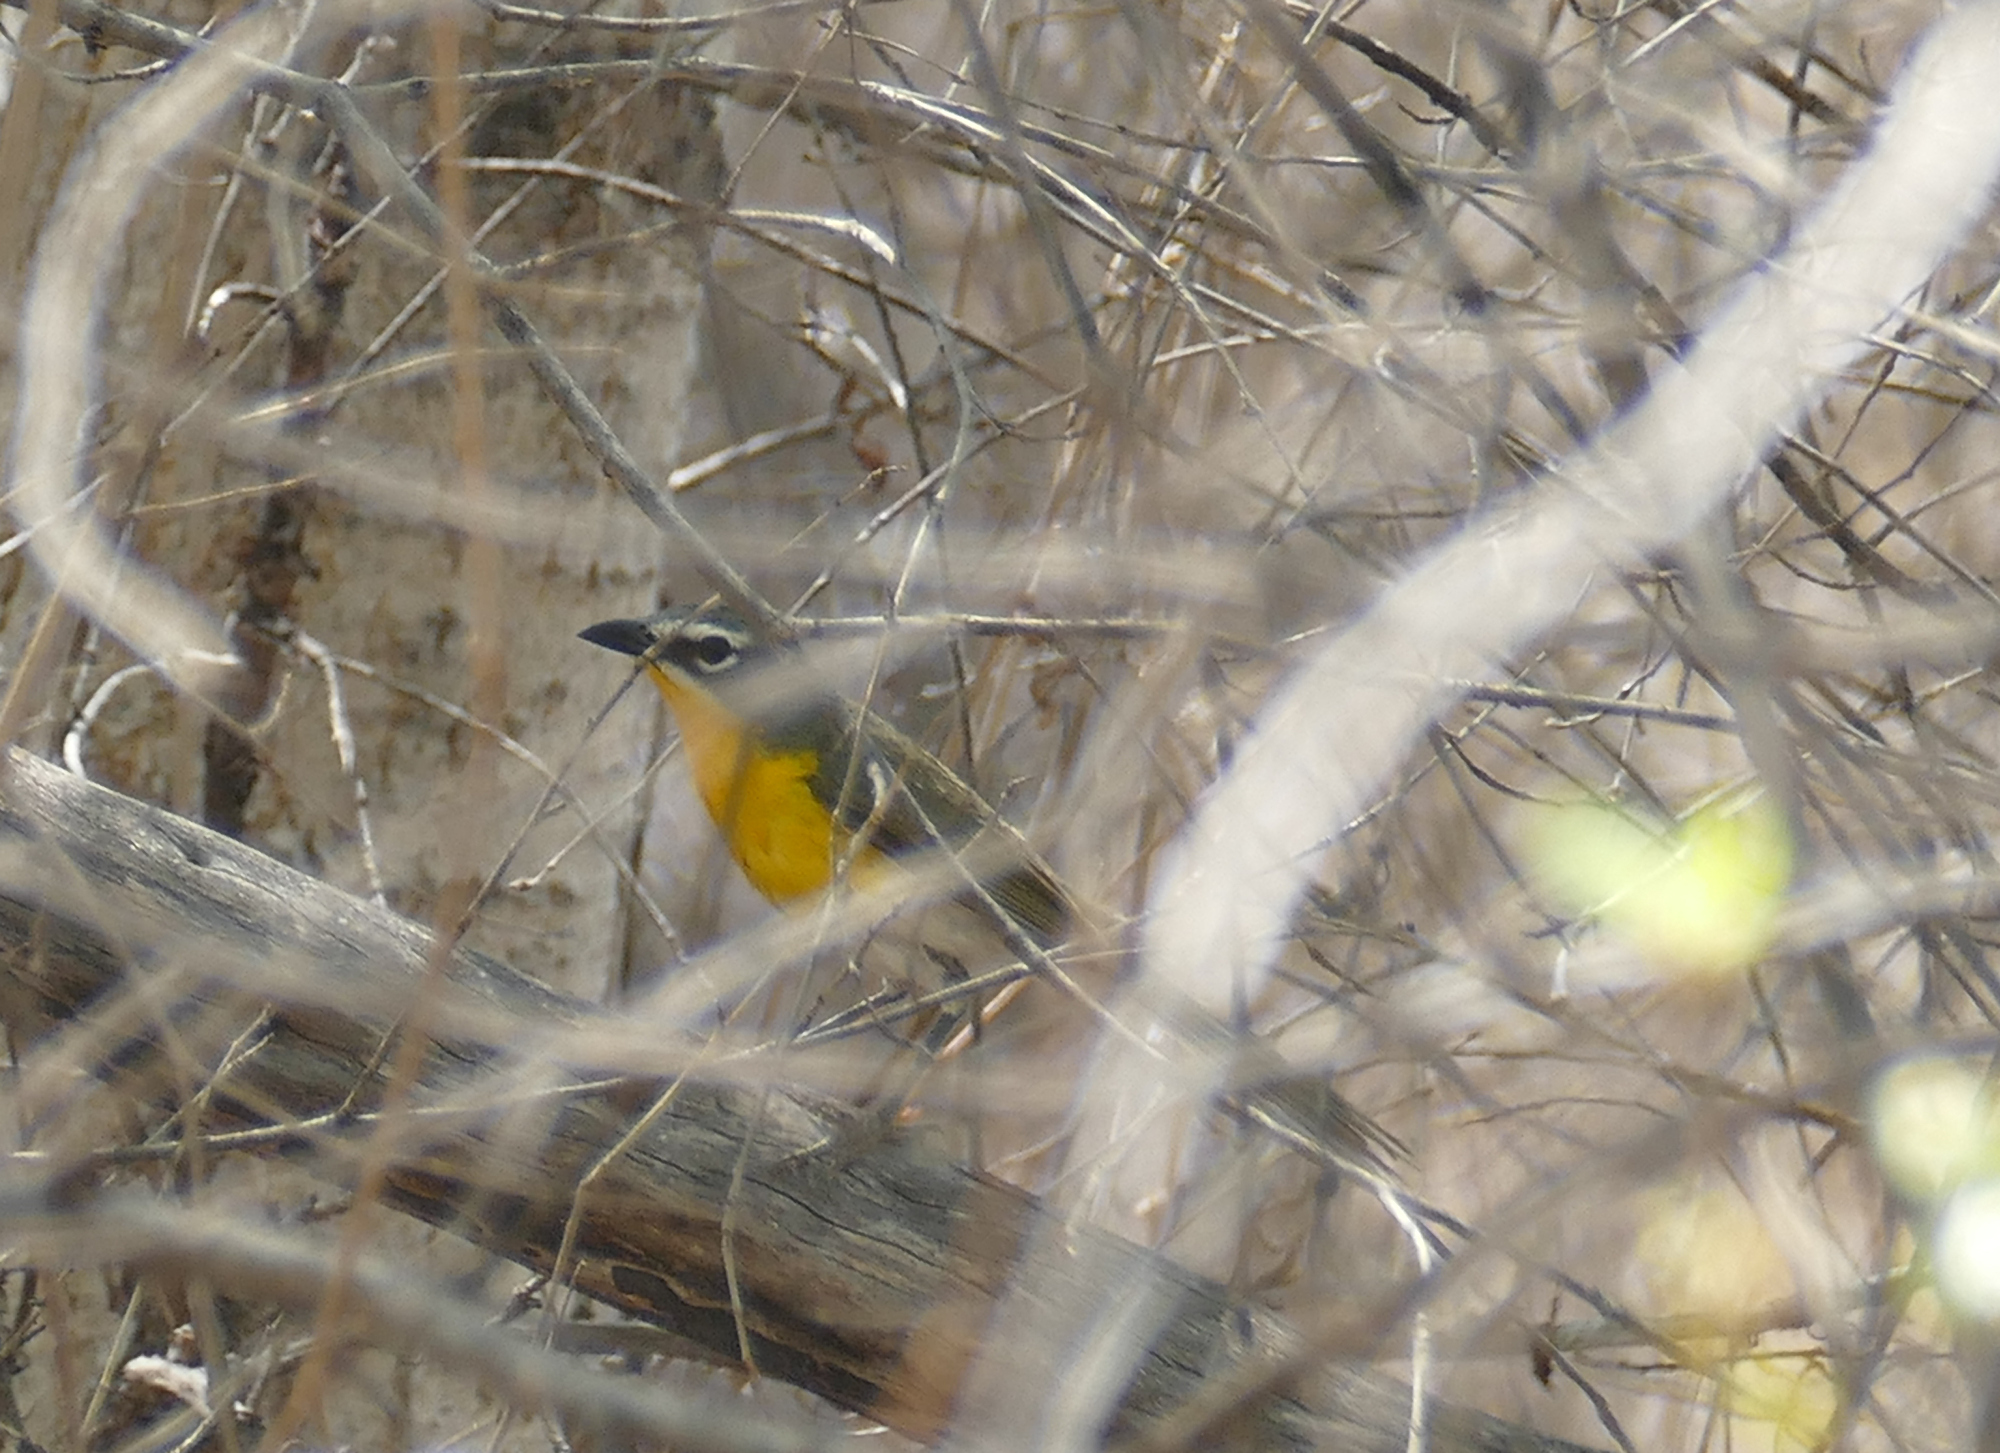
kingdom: Animalia
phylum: Chordata
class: Aves
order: Passeriformes
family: Parulidae
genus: Icteria
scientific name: Icteria virens
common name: Yellow-breasted chat
